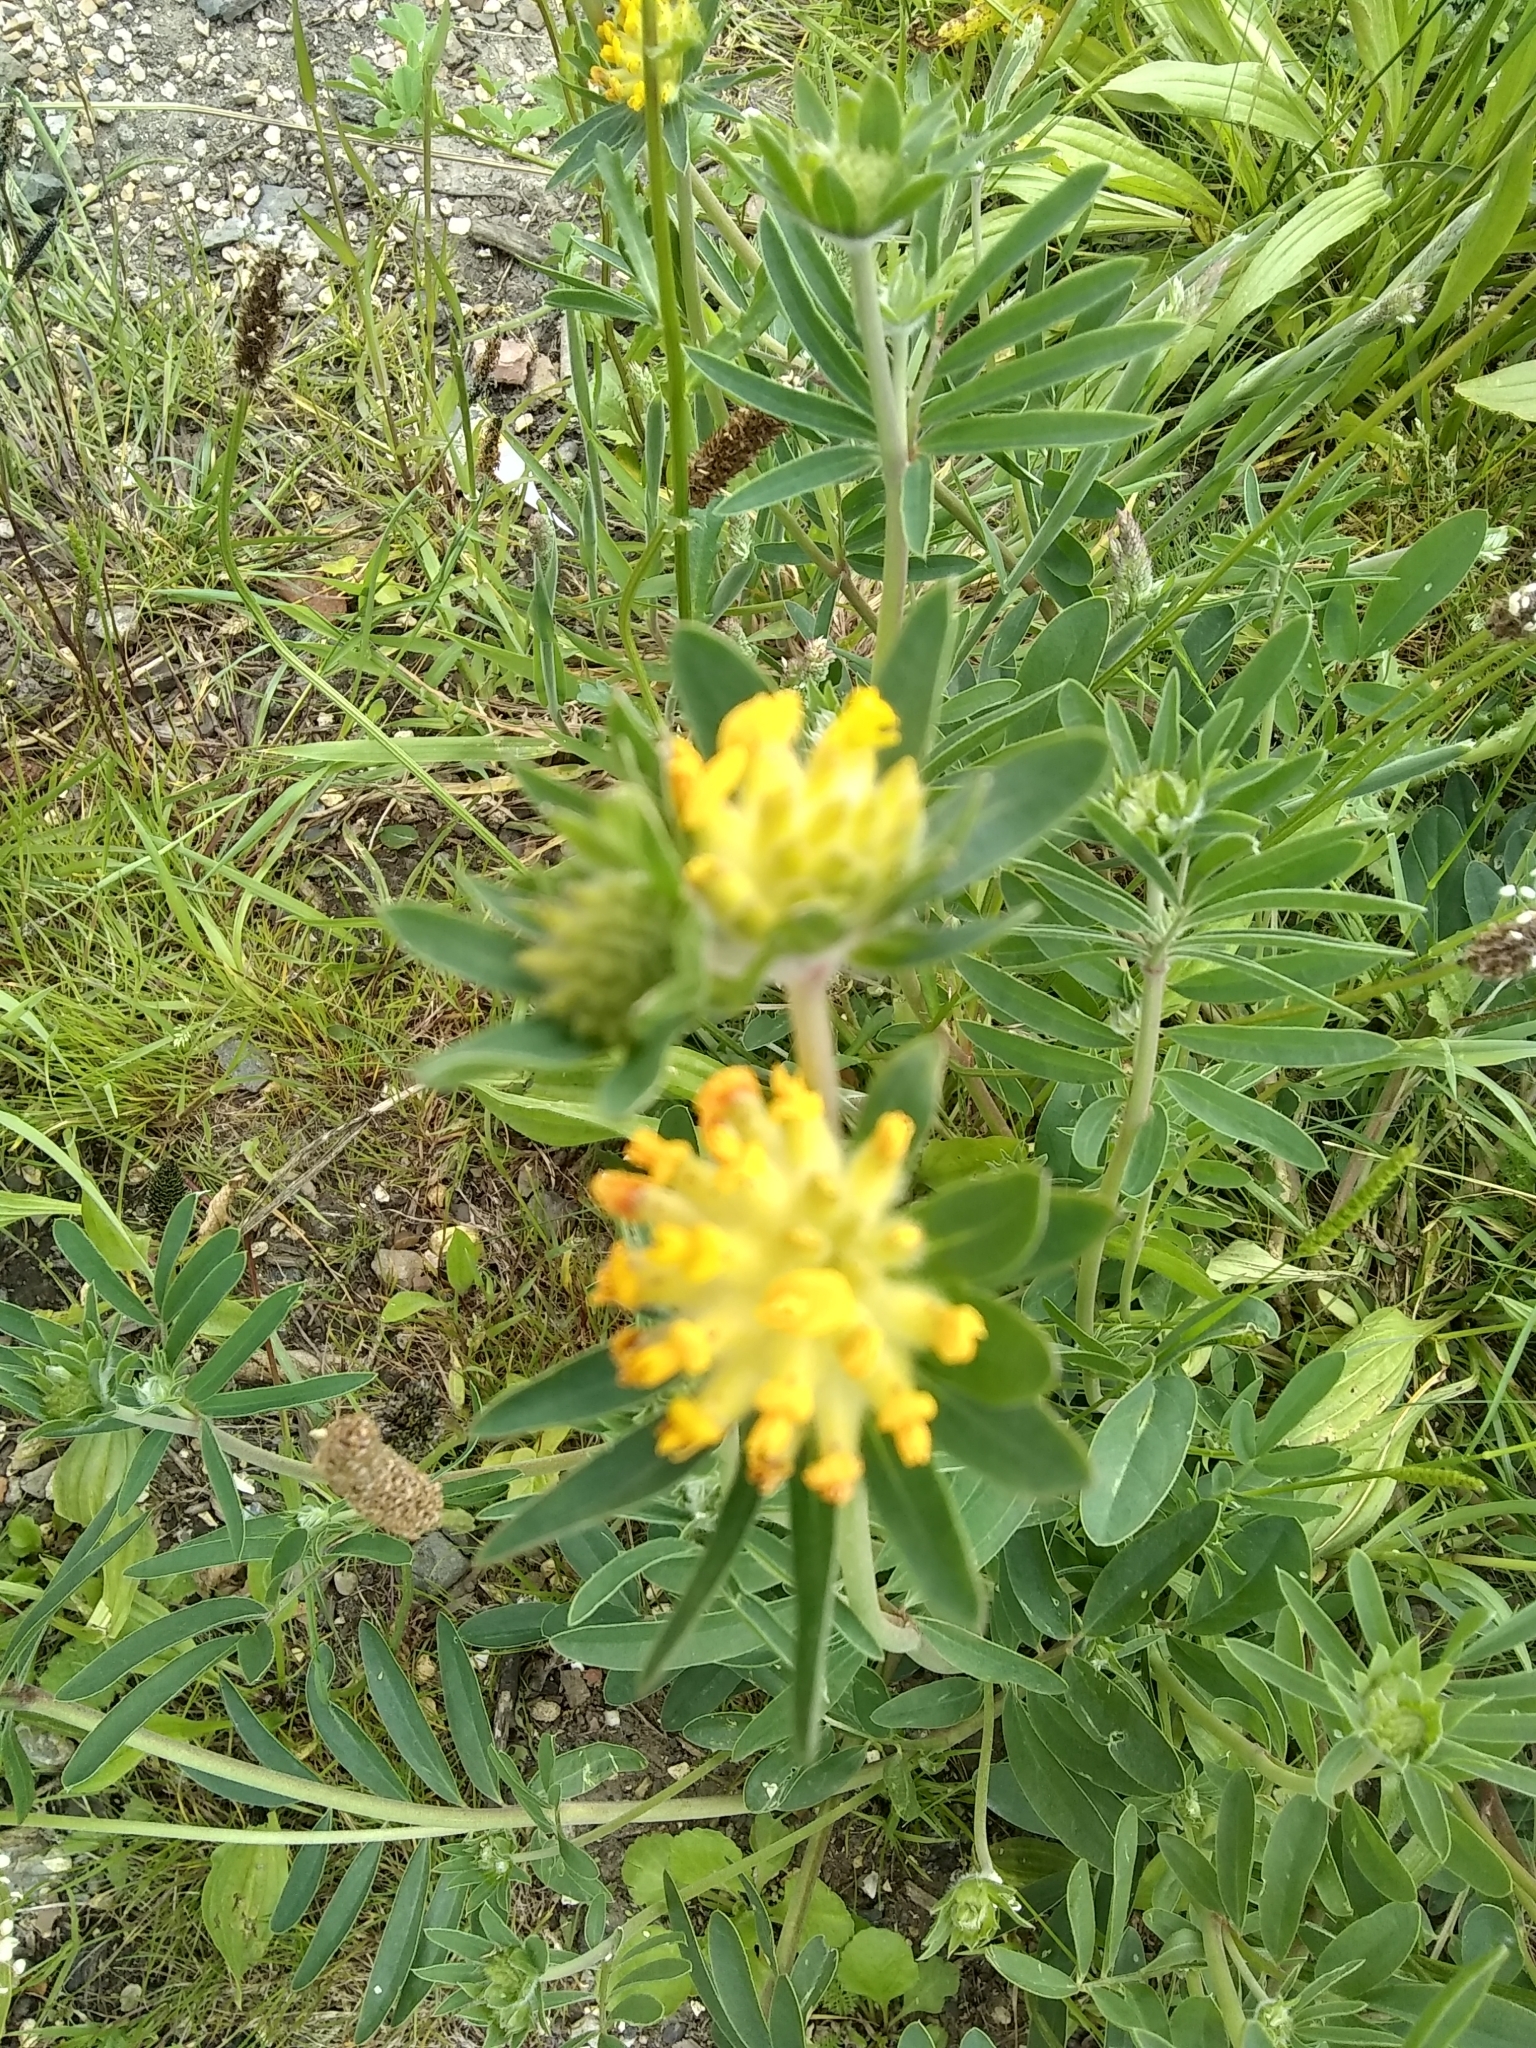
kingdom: Plantae
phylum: Tracheophyta
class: Magnoliopsida
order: Fabales
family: Fabaceae
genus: Anthyllis
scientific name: Anthyllis vulneraria
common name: Kidney vetch
